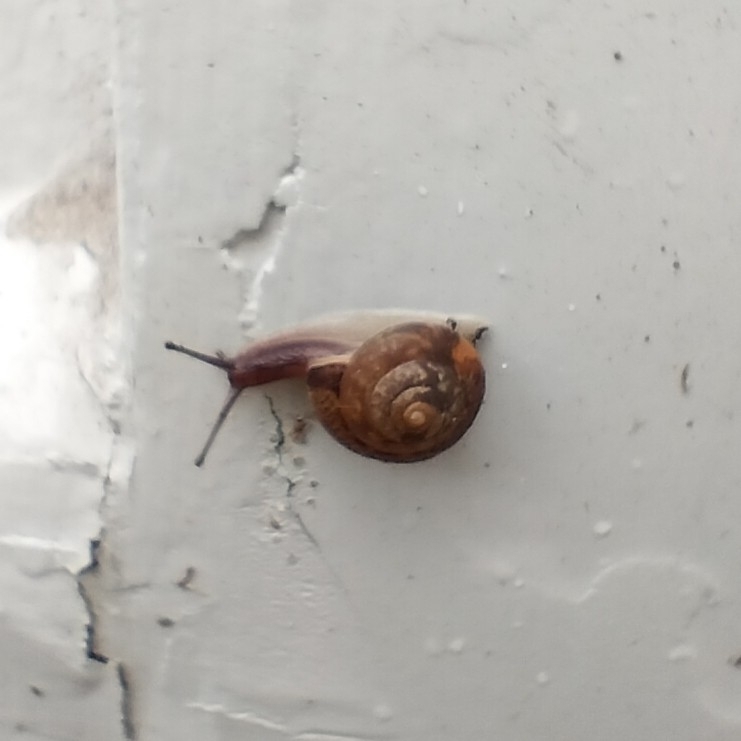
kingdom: Animalia
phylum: Mollusca
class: Gastropoda
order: Stylommatophora
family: Hygromiidae
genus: Hygromia
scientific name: Hygromia cinctella
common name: Girdled snail
